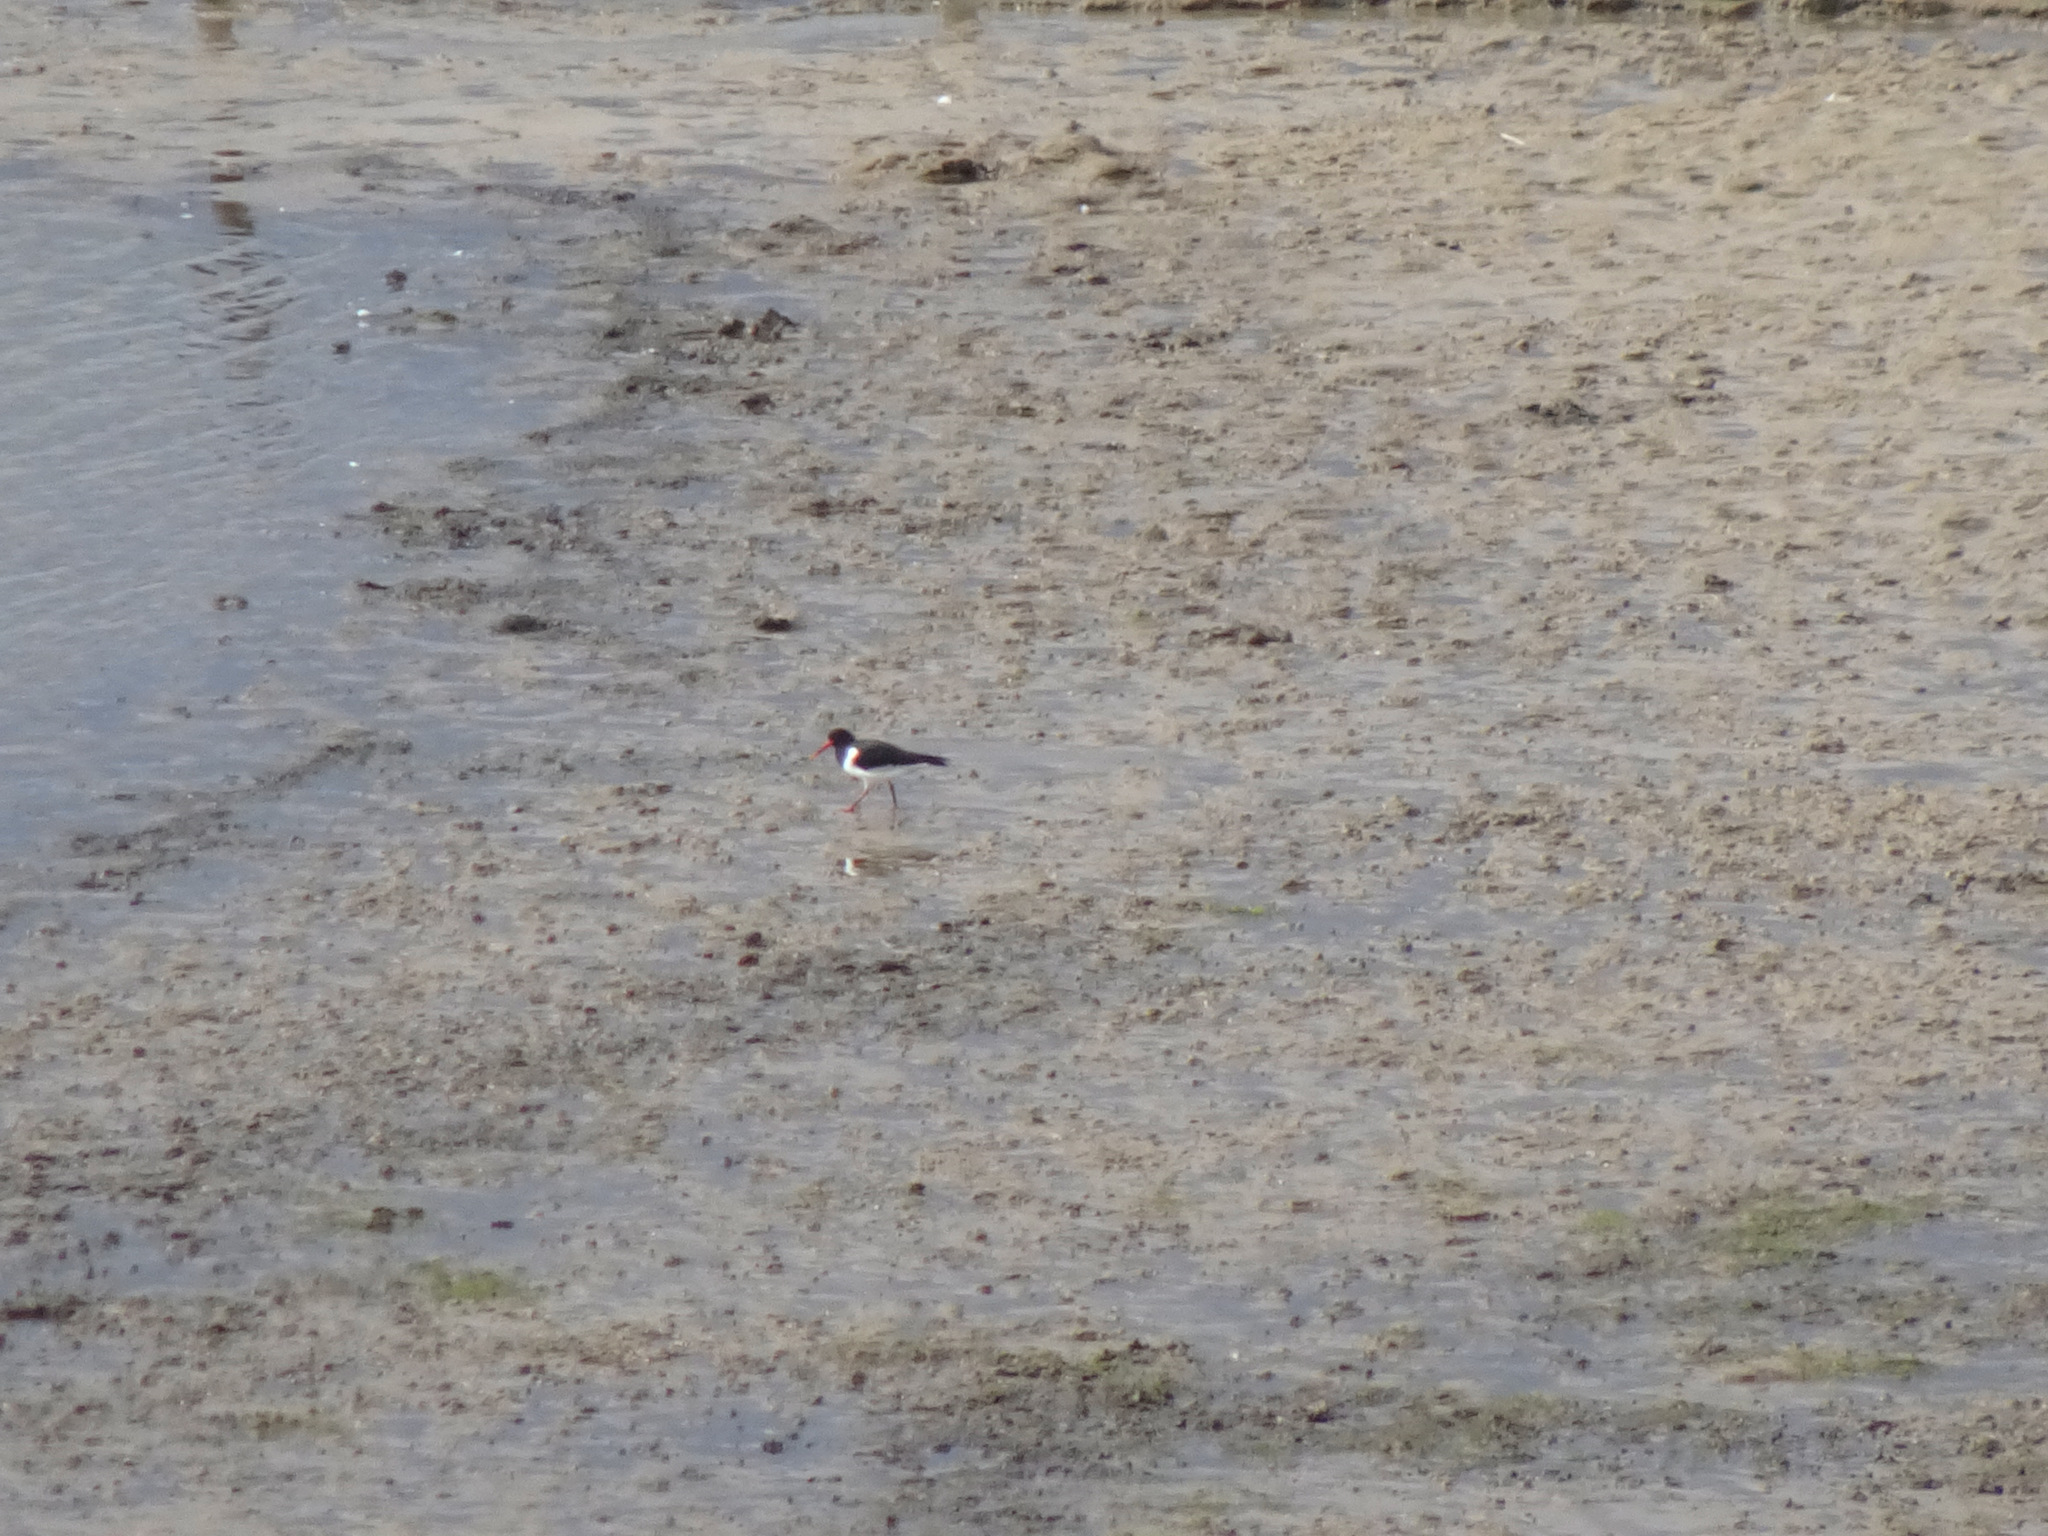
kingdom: Animalia
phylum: Chordata
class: Aves
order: Charadriiformes
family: Haematopodidae
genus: Haematopus
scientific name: Haematopus ostralegus
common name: Eurasian oystercatcher
